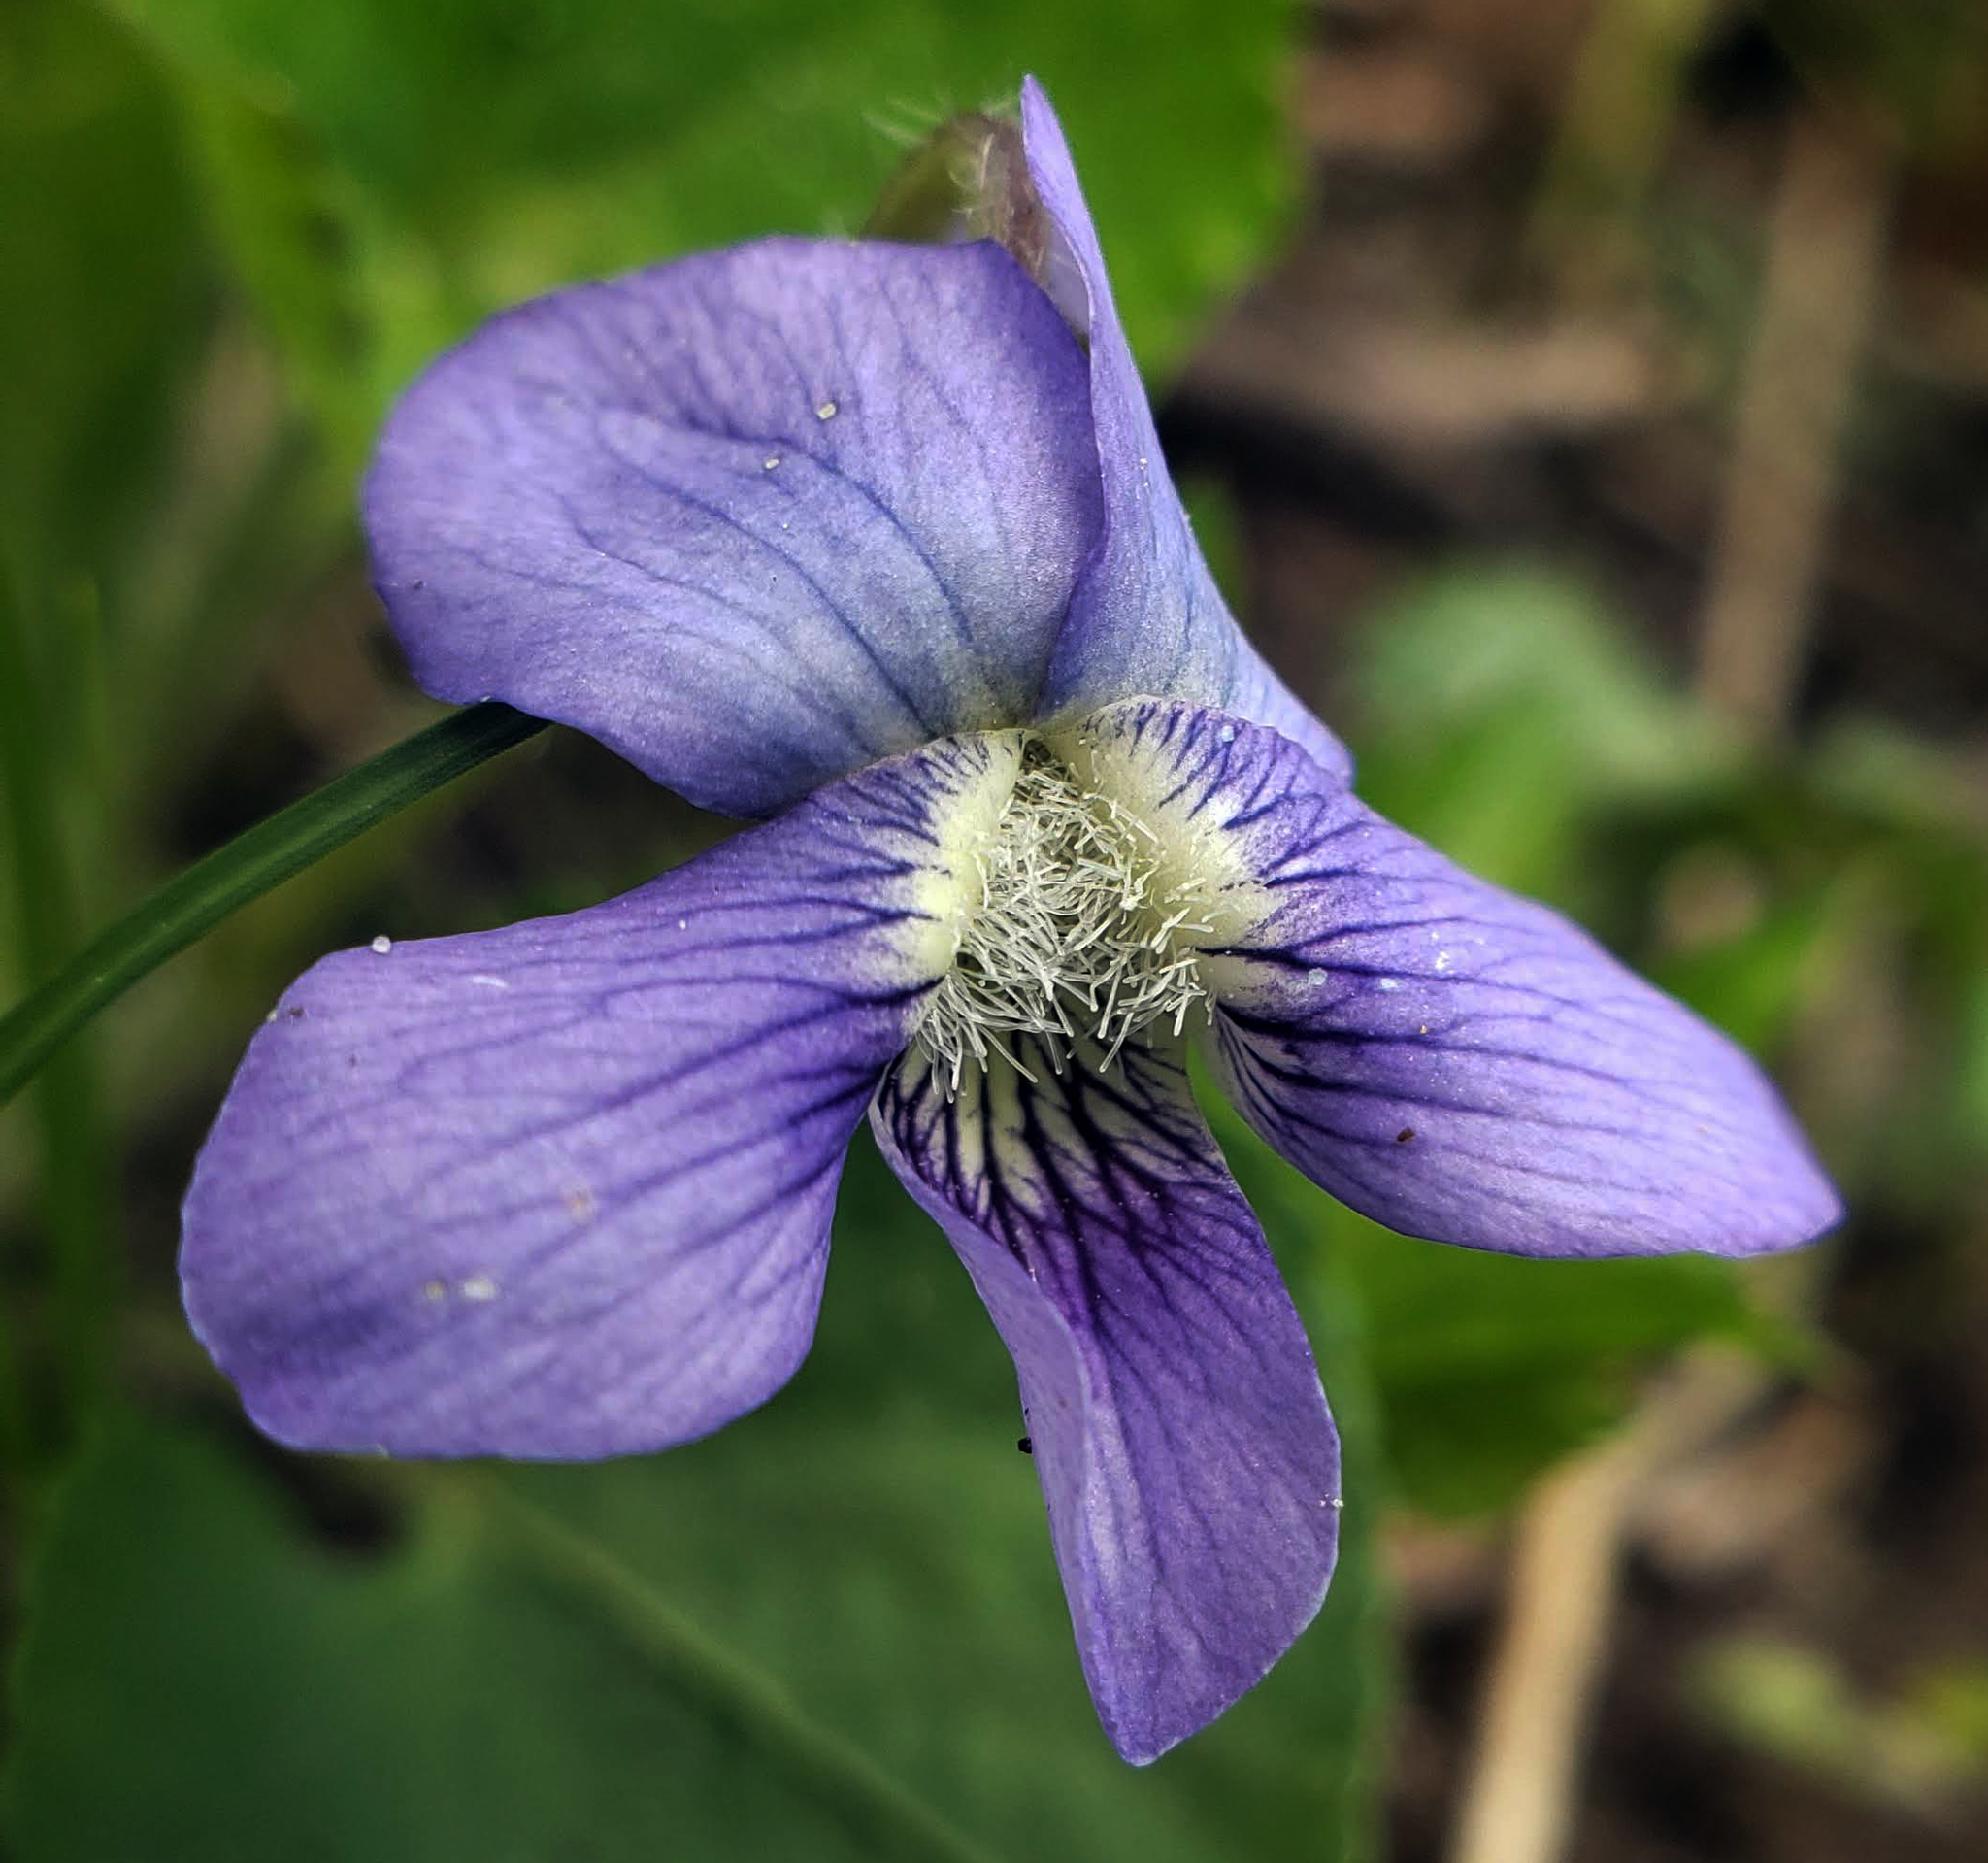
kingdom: Plantae
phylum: Tracheophyta
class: Magnoliopsida
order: Malpighiales
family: Violaceae
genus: Viola
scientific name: Viola sororia
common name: Dooryard violet
